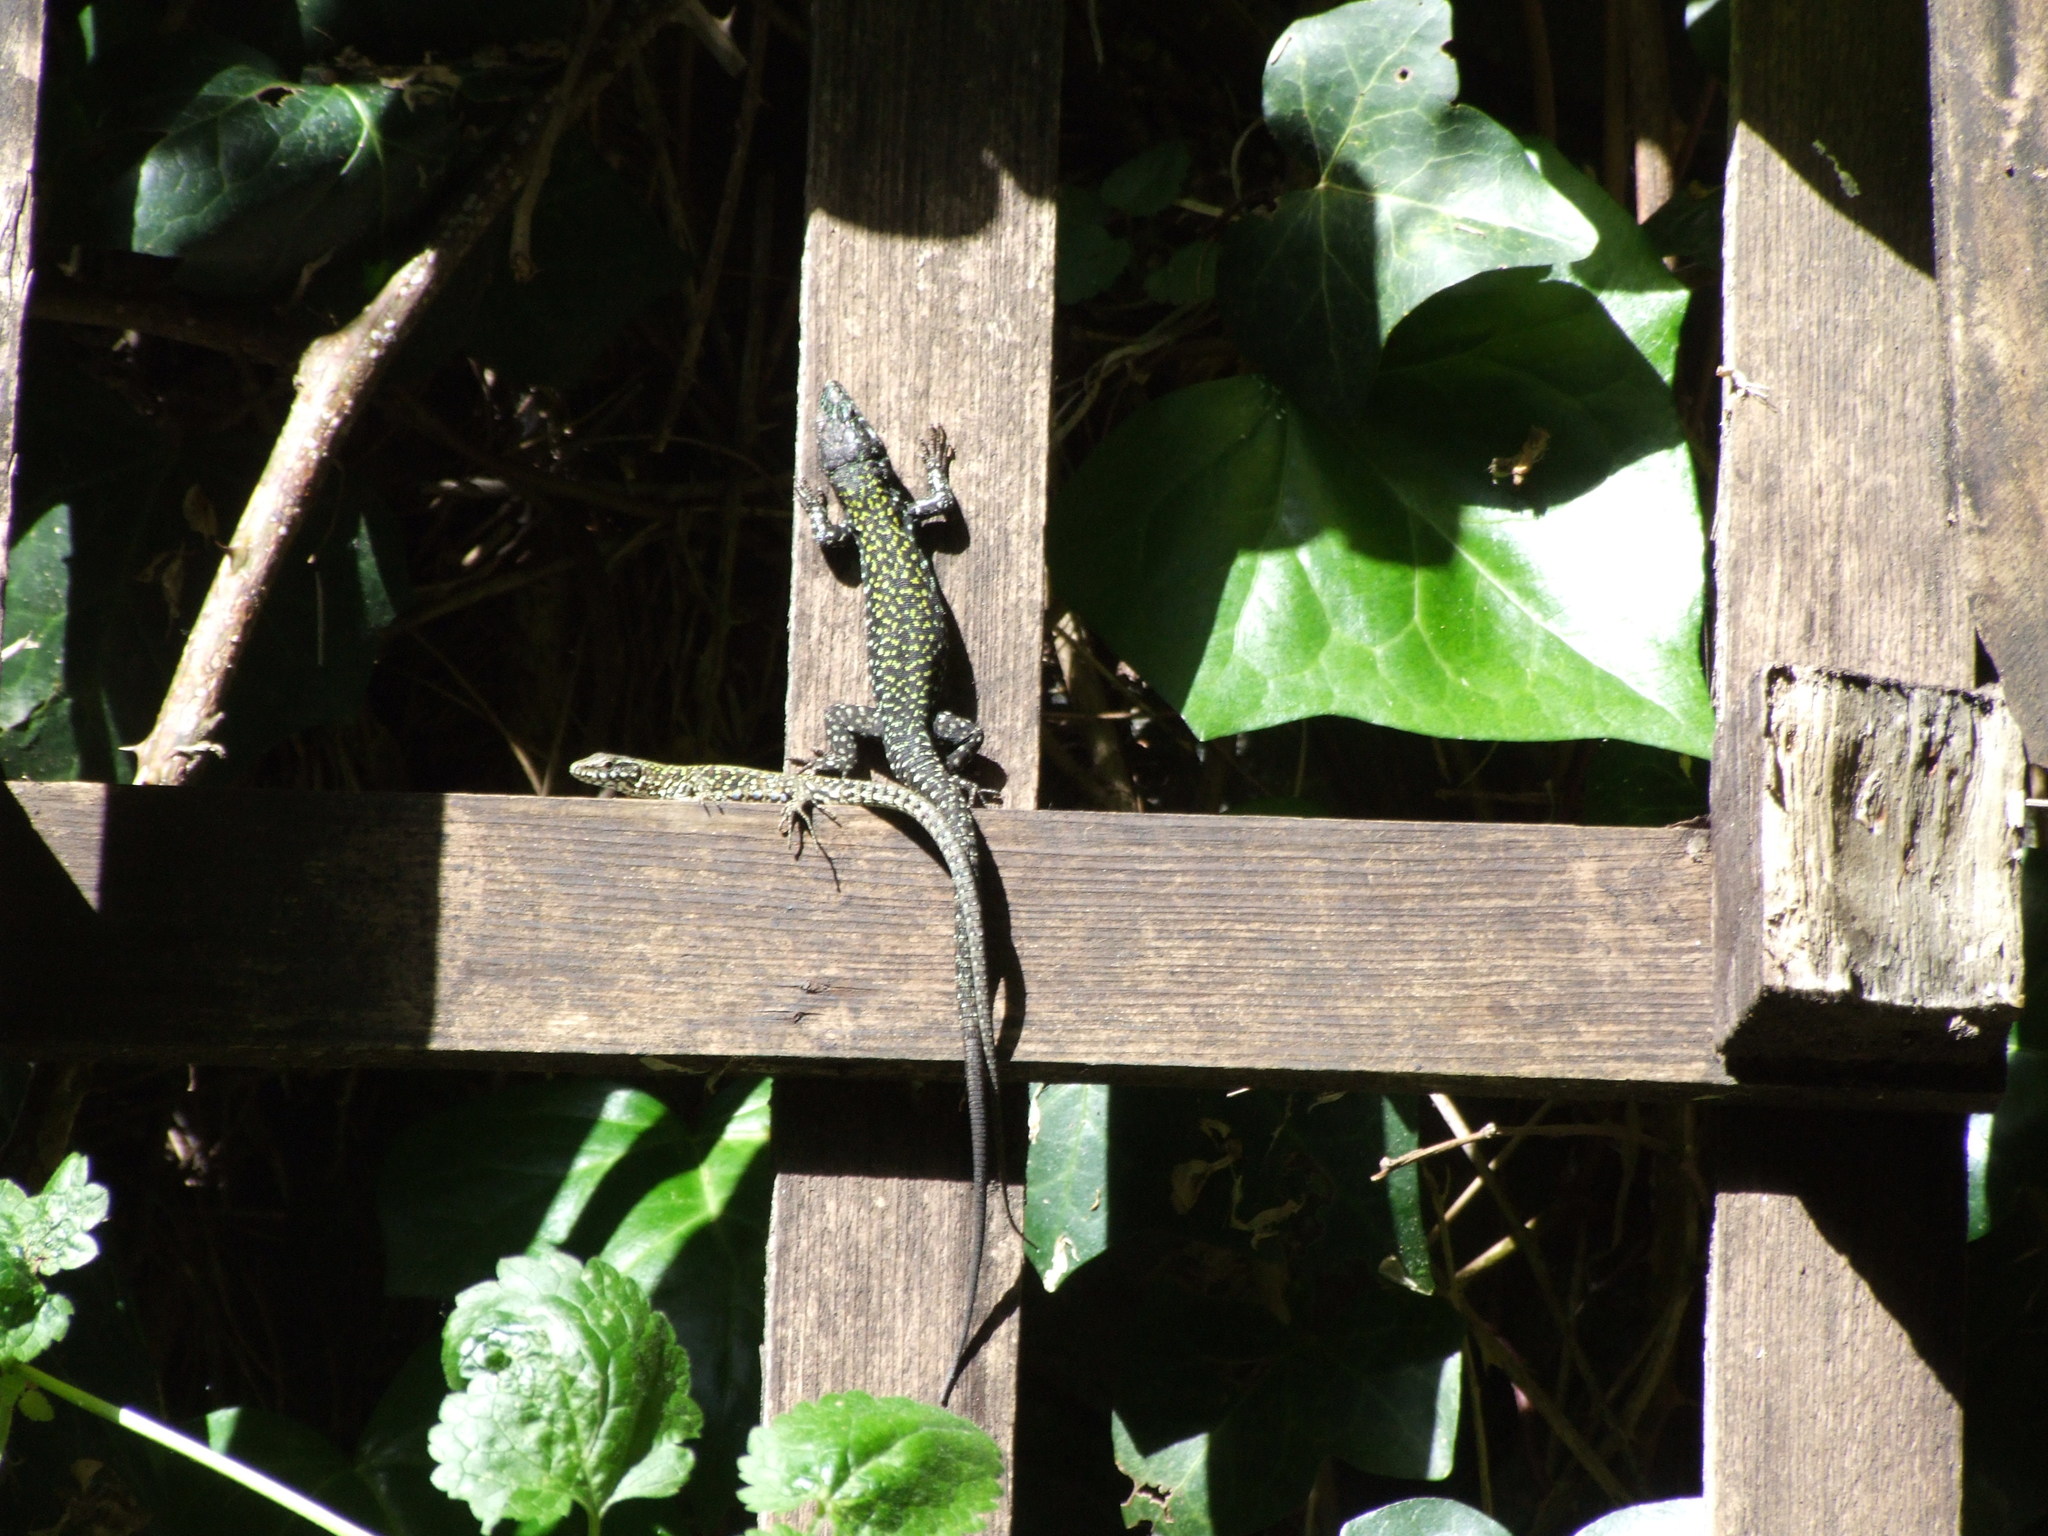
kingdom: Animalia
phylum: Chordata
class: Squamata
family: Lacertidae
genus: Podarcis
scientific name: Podarcis muralis
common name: Common wall lizard
